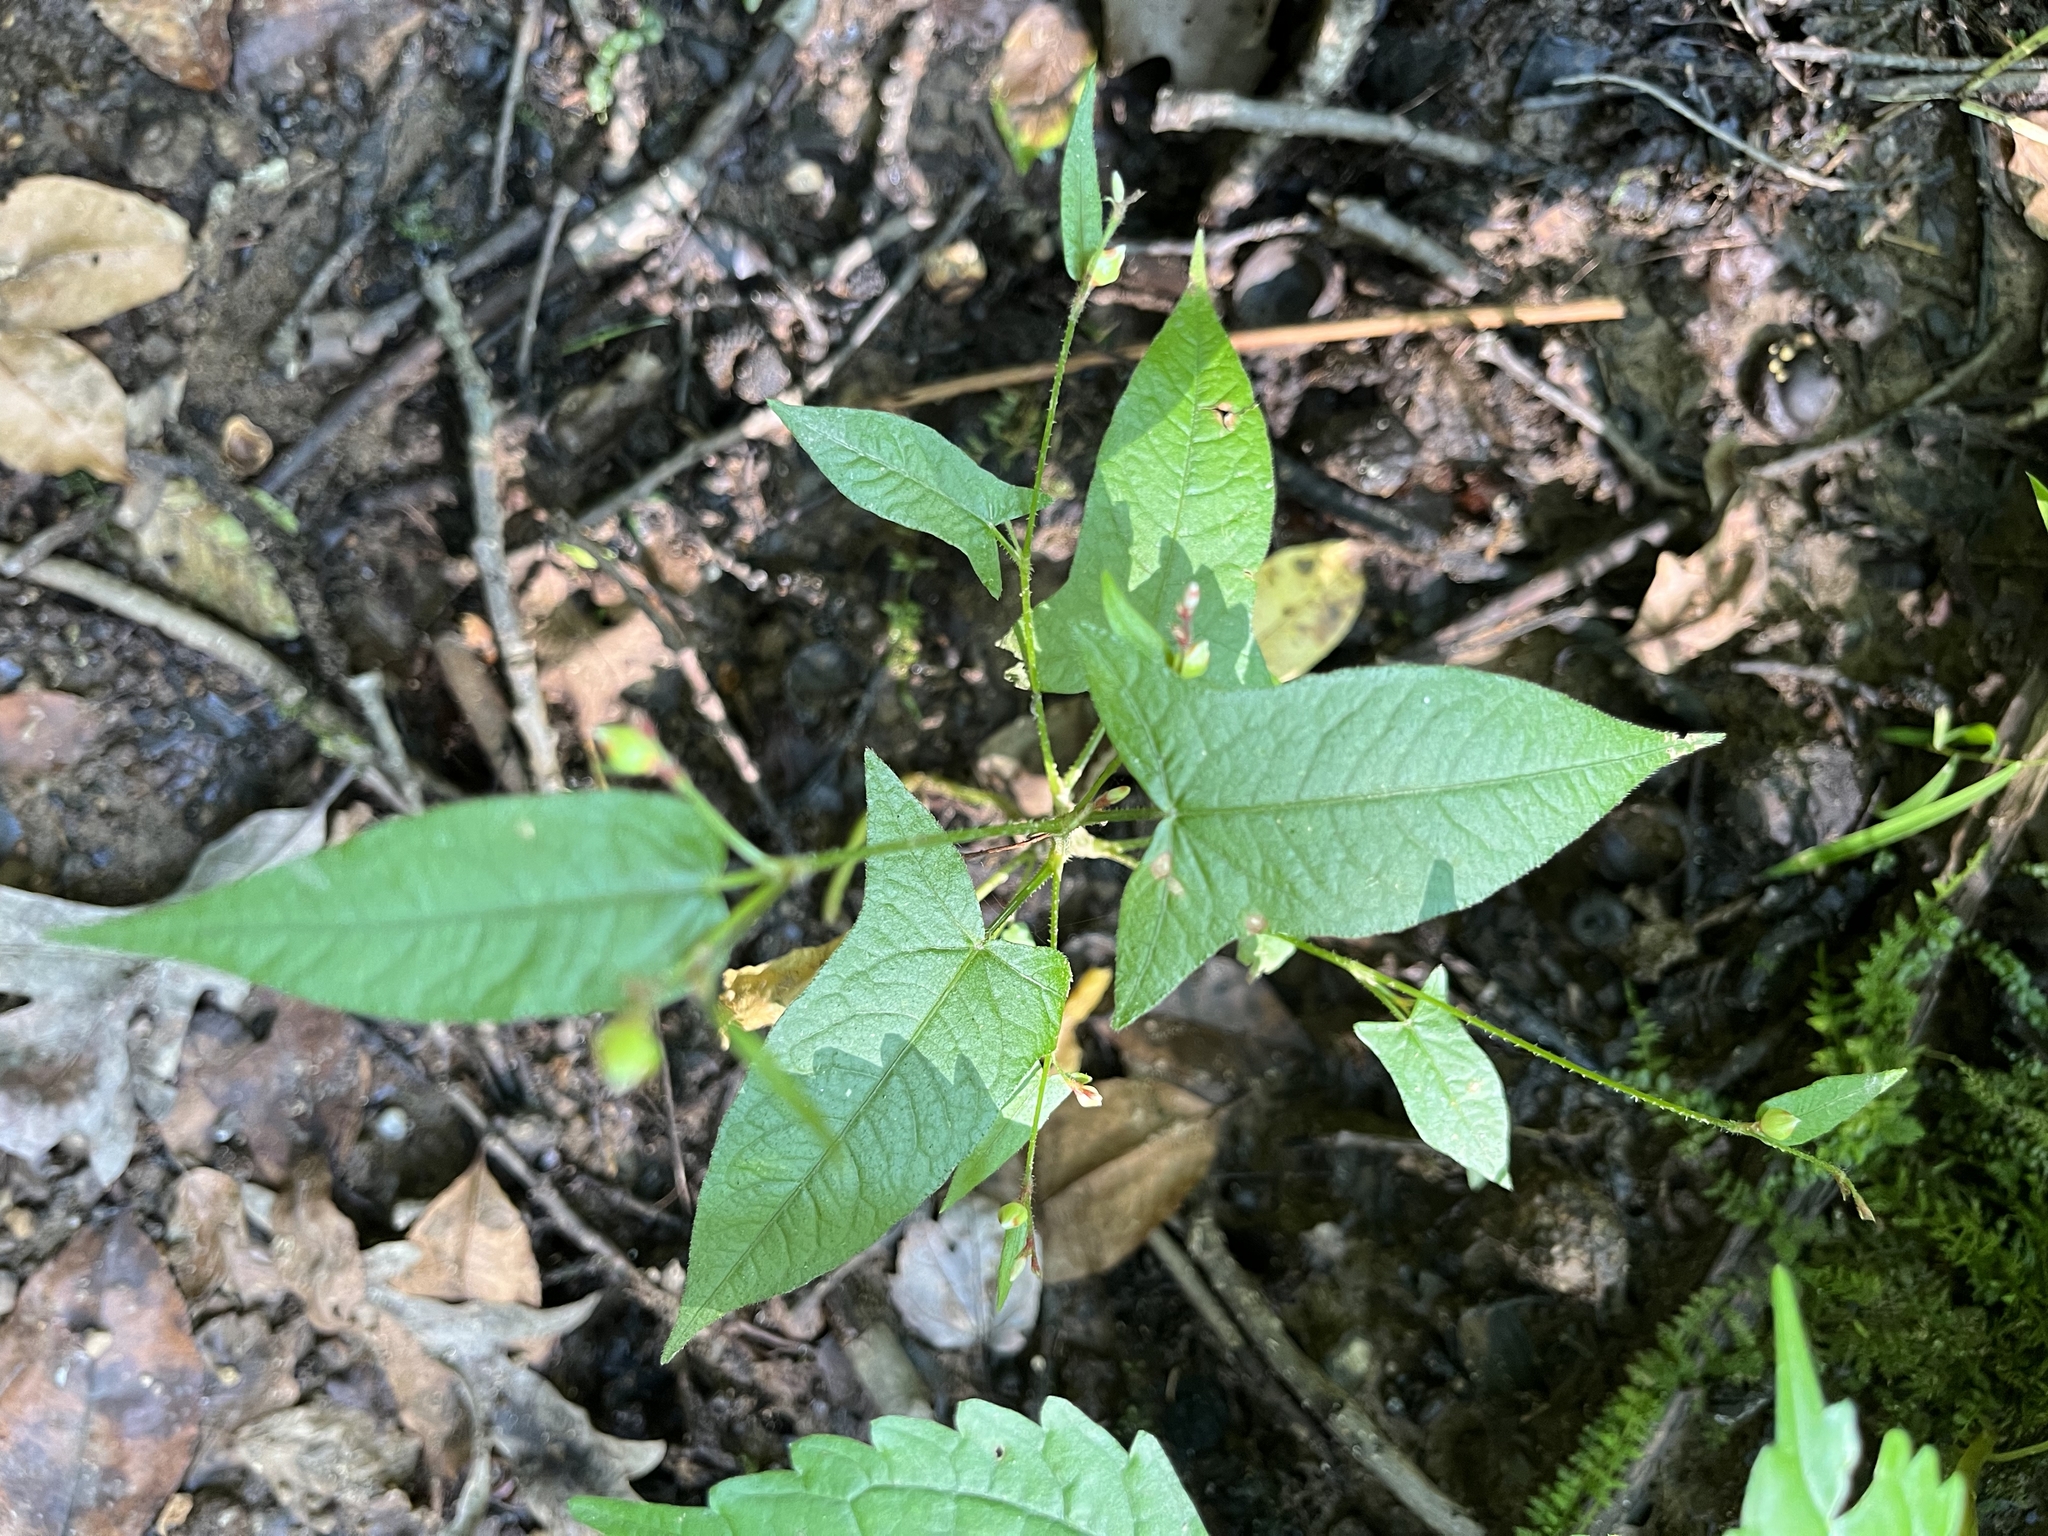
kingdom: Plantae
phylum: Tracheophyta
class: Magnoliopsida
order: Caryophyllales
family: Polygonaceae
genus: Persicaria
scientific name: Persicaria arifolia
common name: Halberd-leaved tear-thumb
